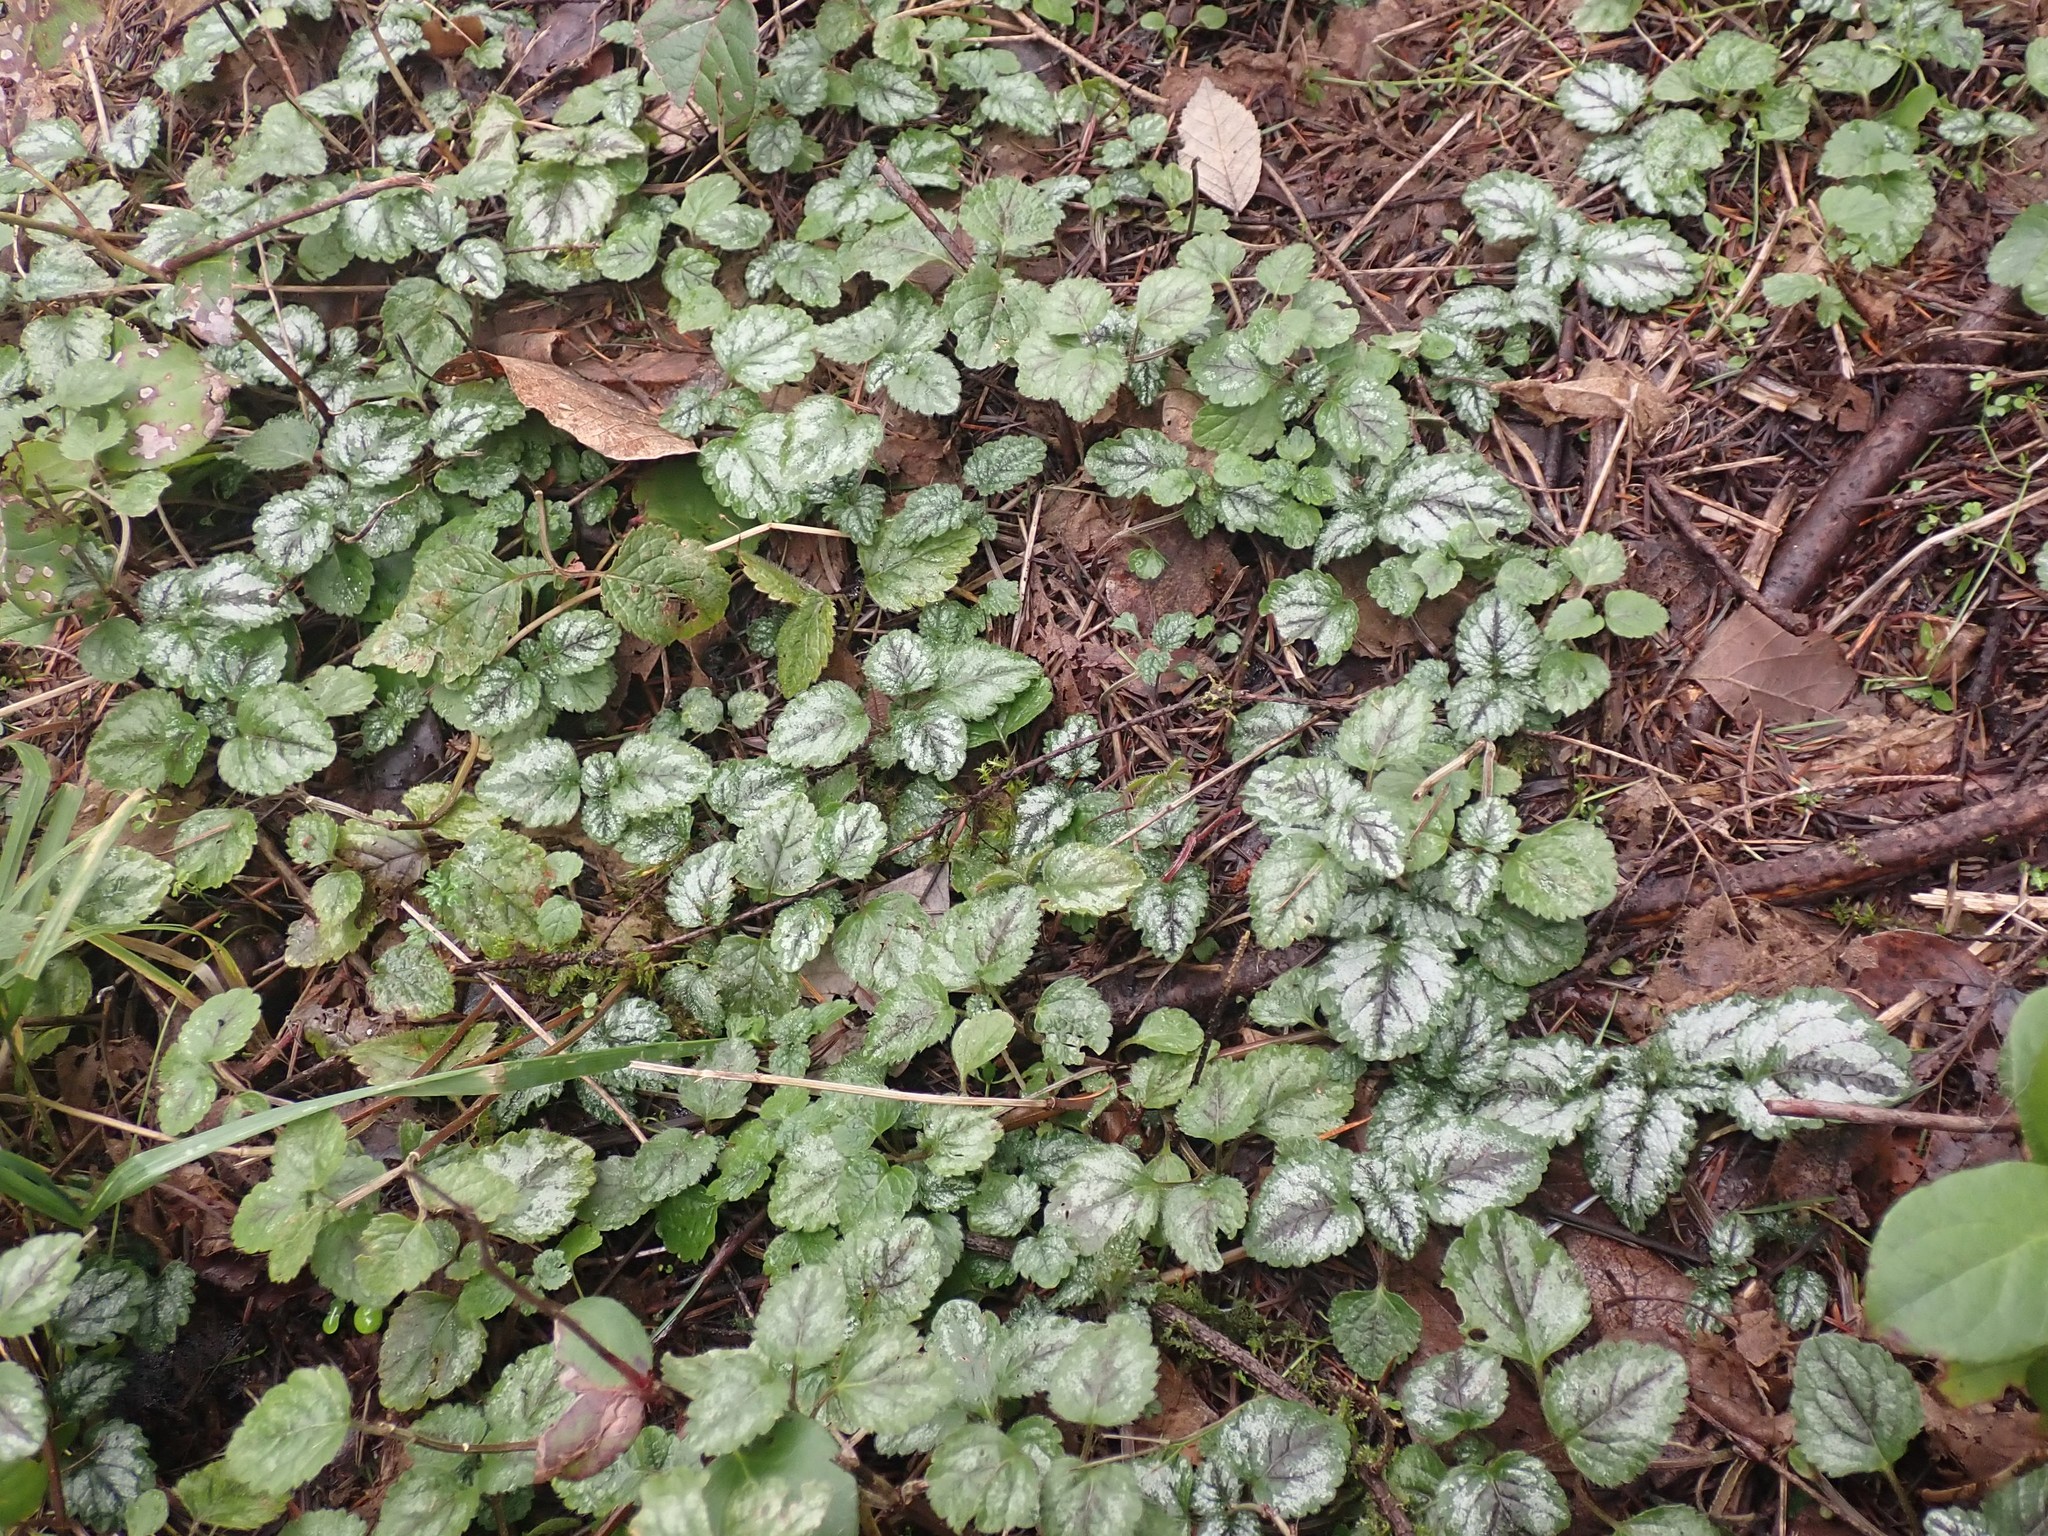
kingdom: Plantae
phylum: Tracheophyta
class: Magnoliopsida
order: Lamiales
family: Lamiaceae
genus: Lamium
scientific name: Lamium galeobdolon
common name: Yellow archangel
